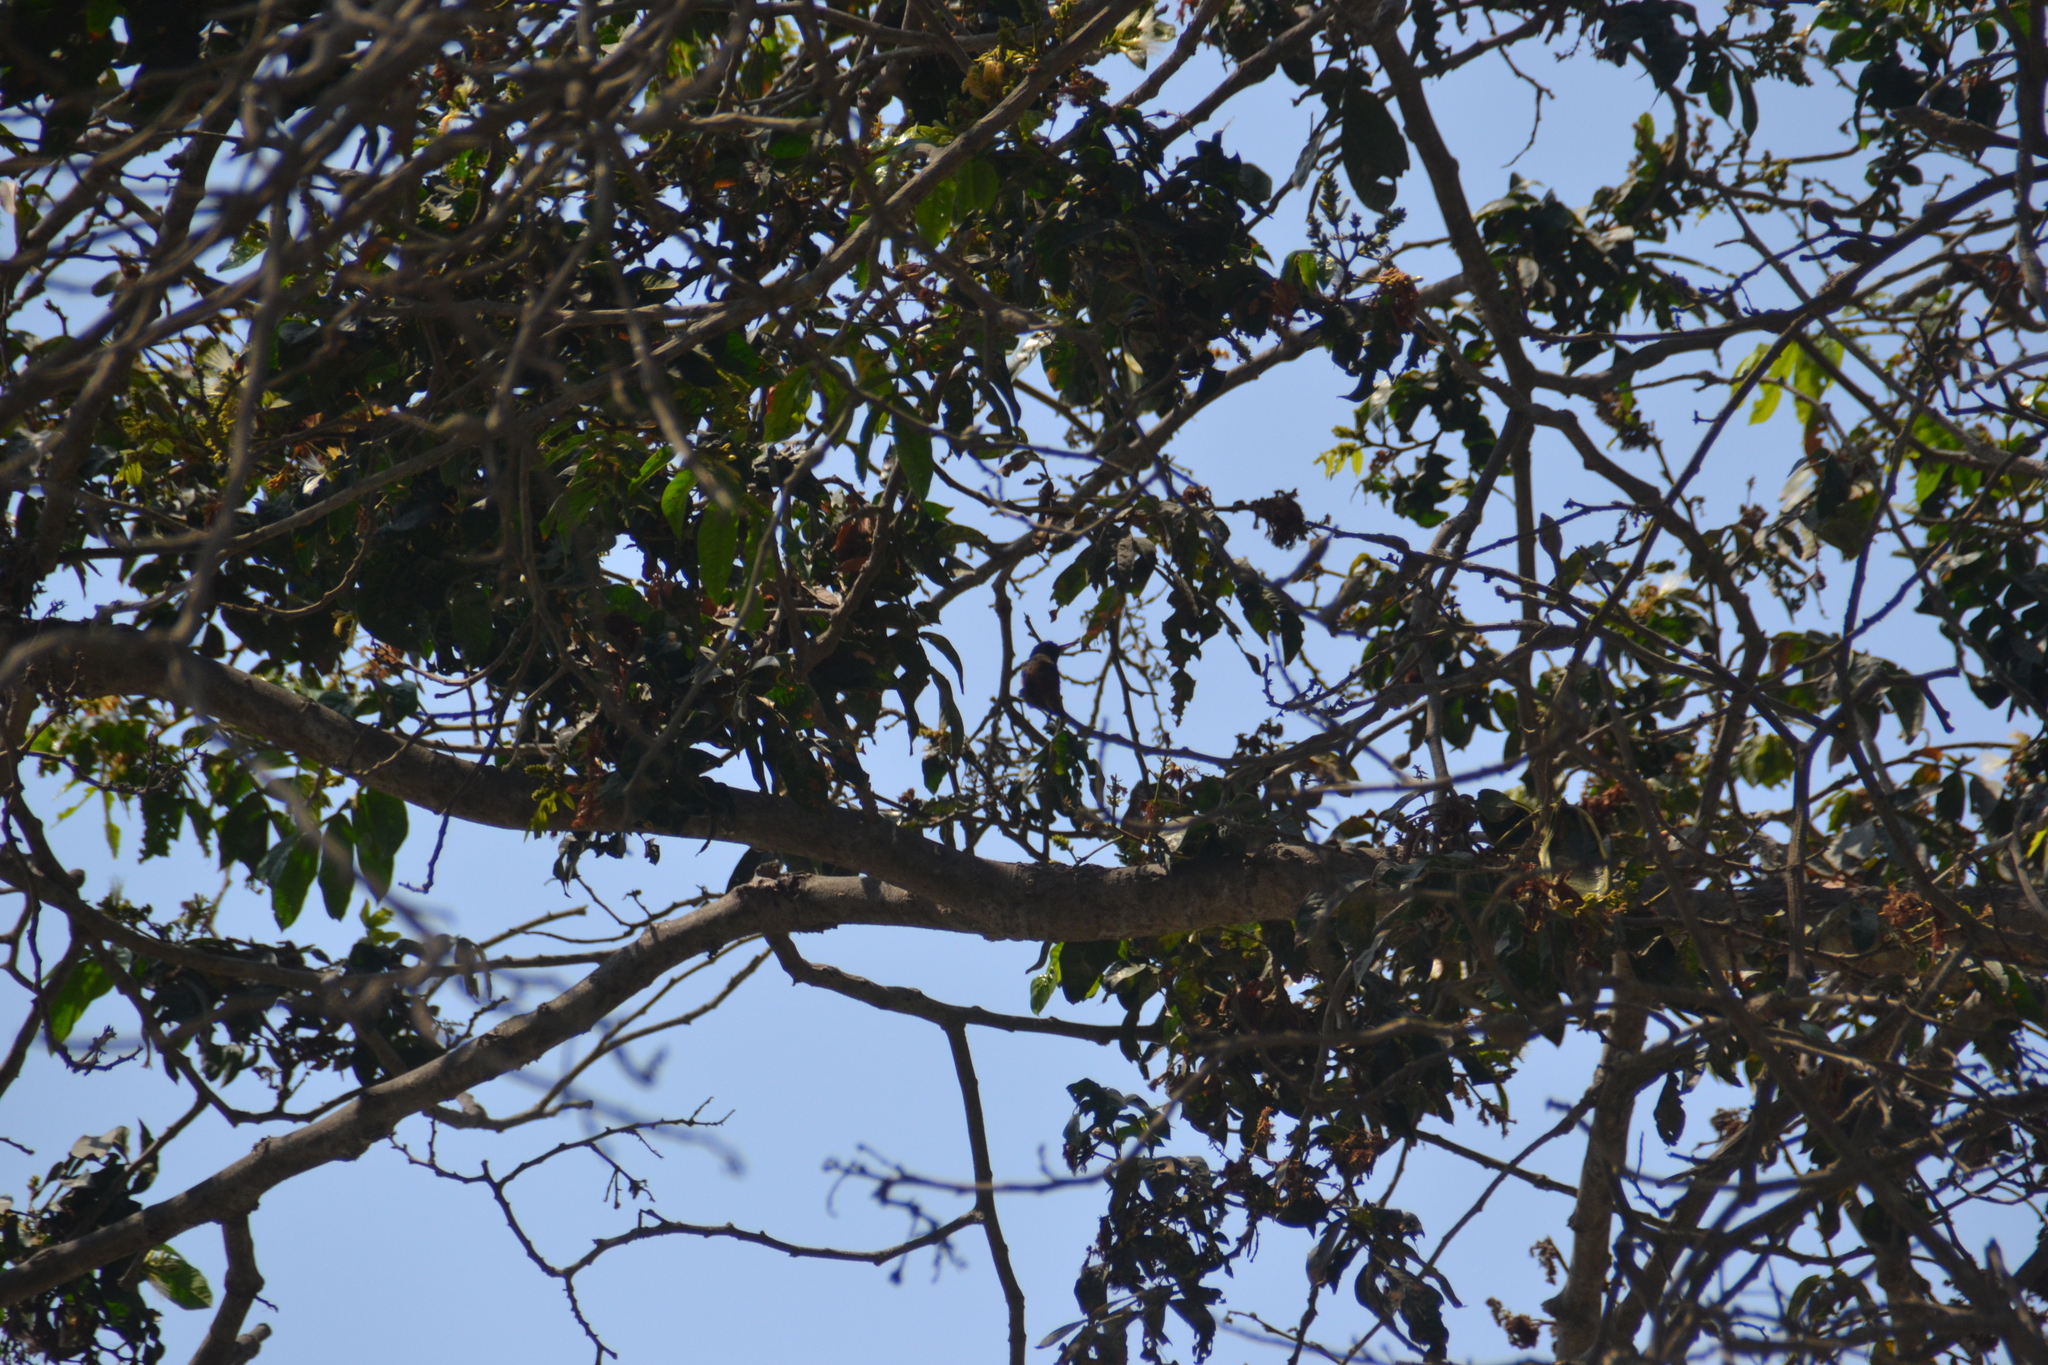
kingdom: Animalia
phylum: Chordata
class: Aves
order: Apodiformes
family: Trochilidae
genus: Amazilis
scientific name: Amazilis amazilia
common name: Amazilia hummingbird
